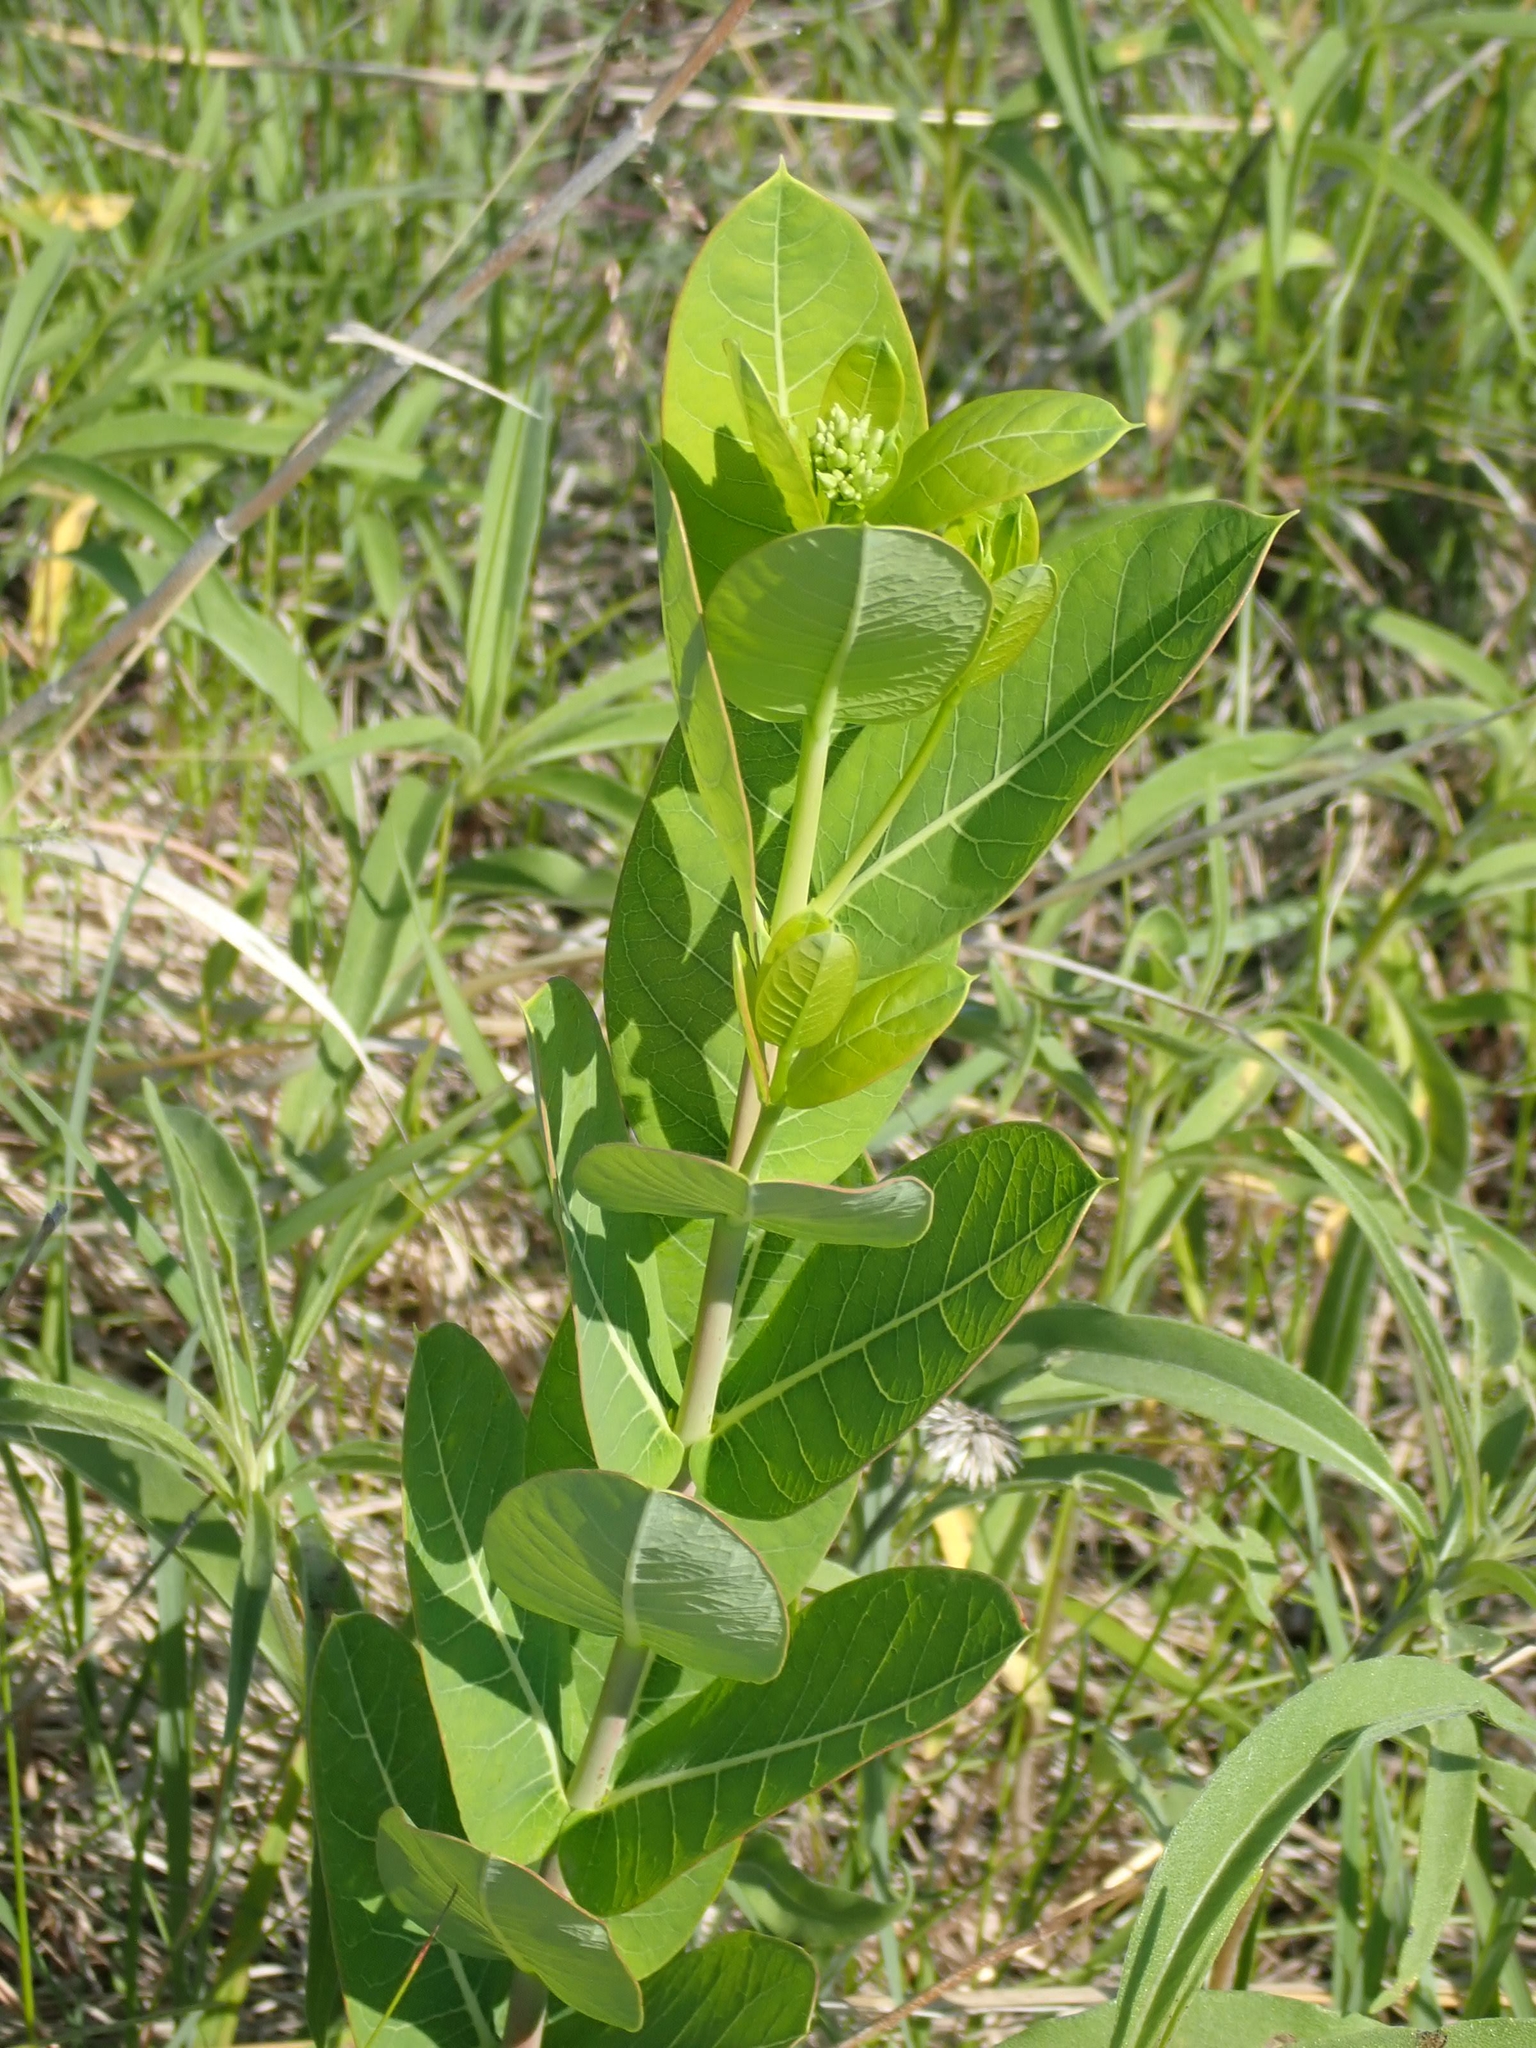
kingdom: Plantae
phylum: Tracheophyta
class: Magnoliopsida
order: Gentianales
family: Apocynaceae
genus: Apocynum
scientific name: Apocynum cannabinum
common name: Hemp dogbane
